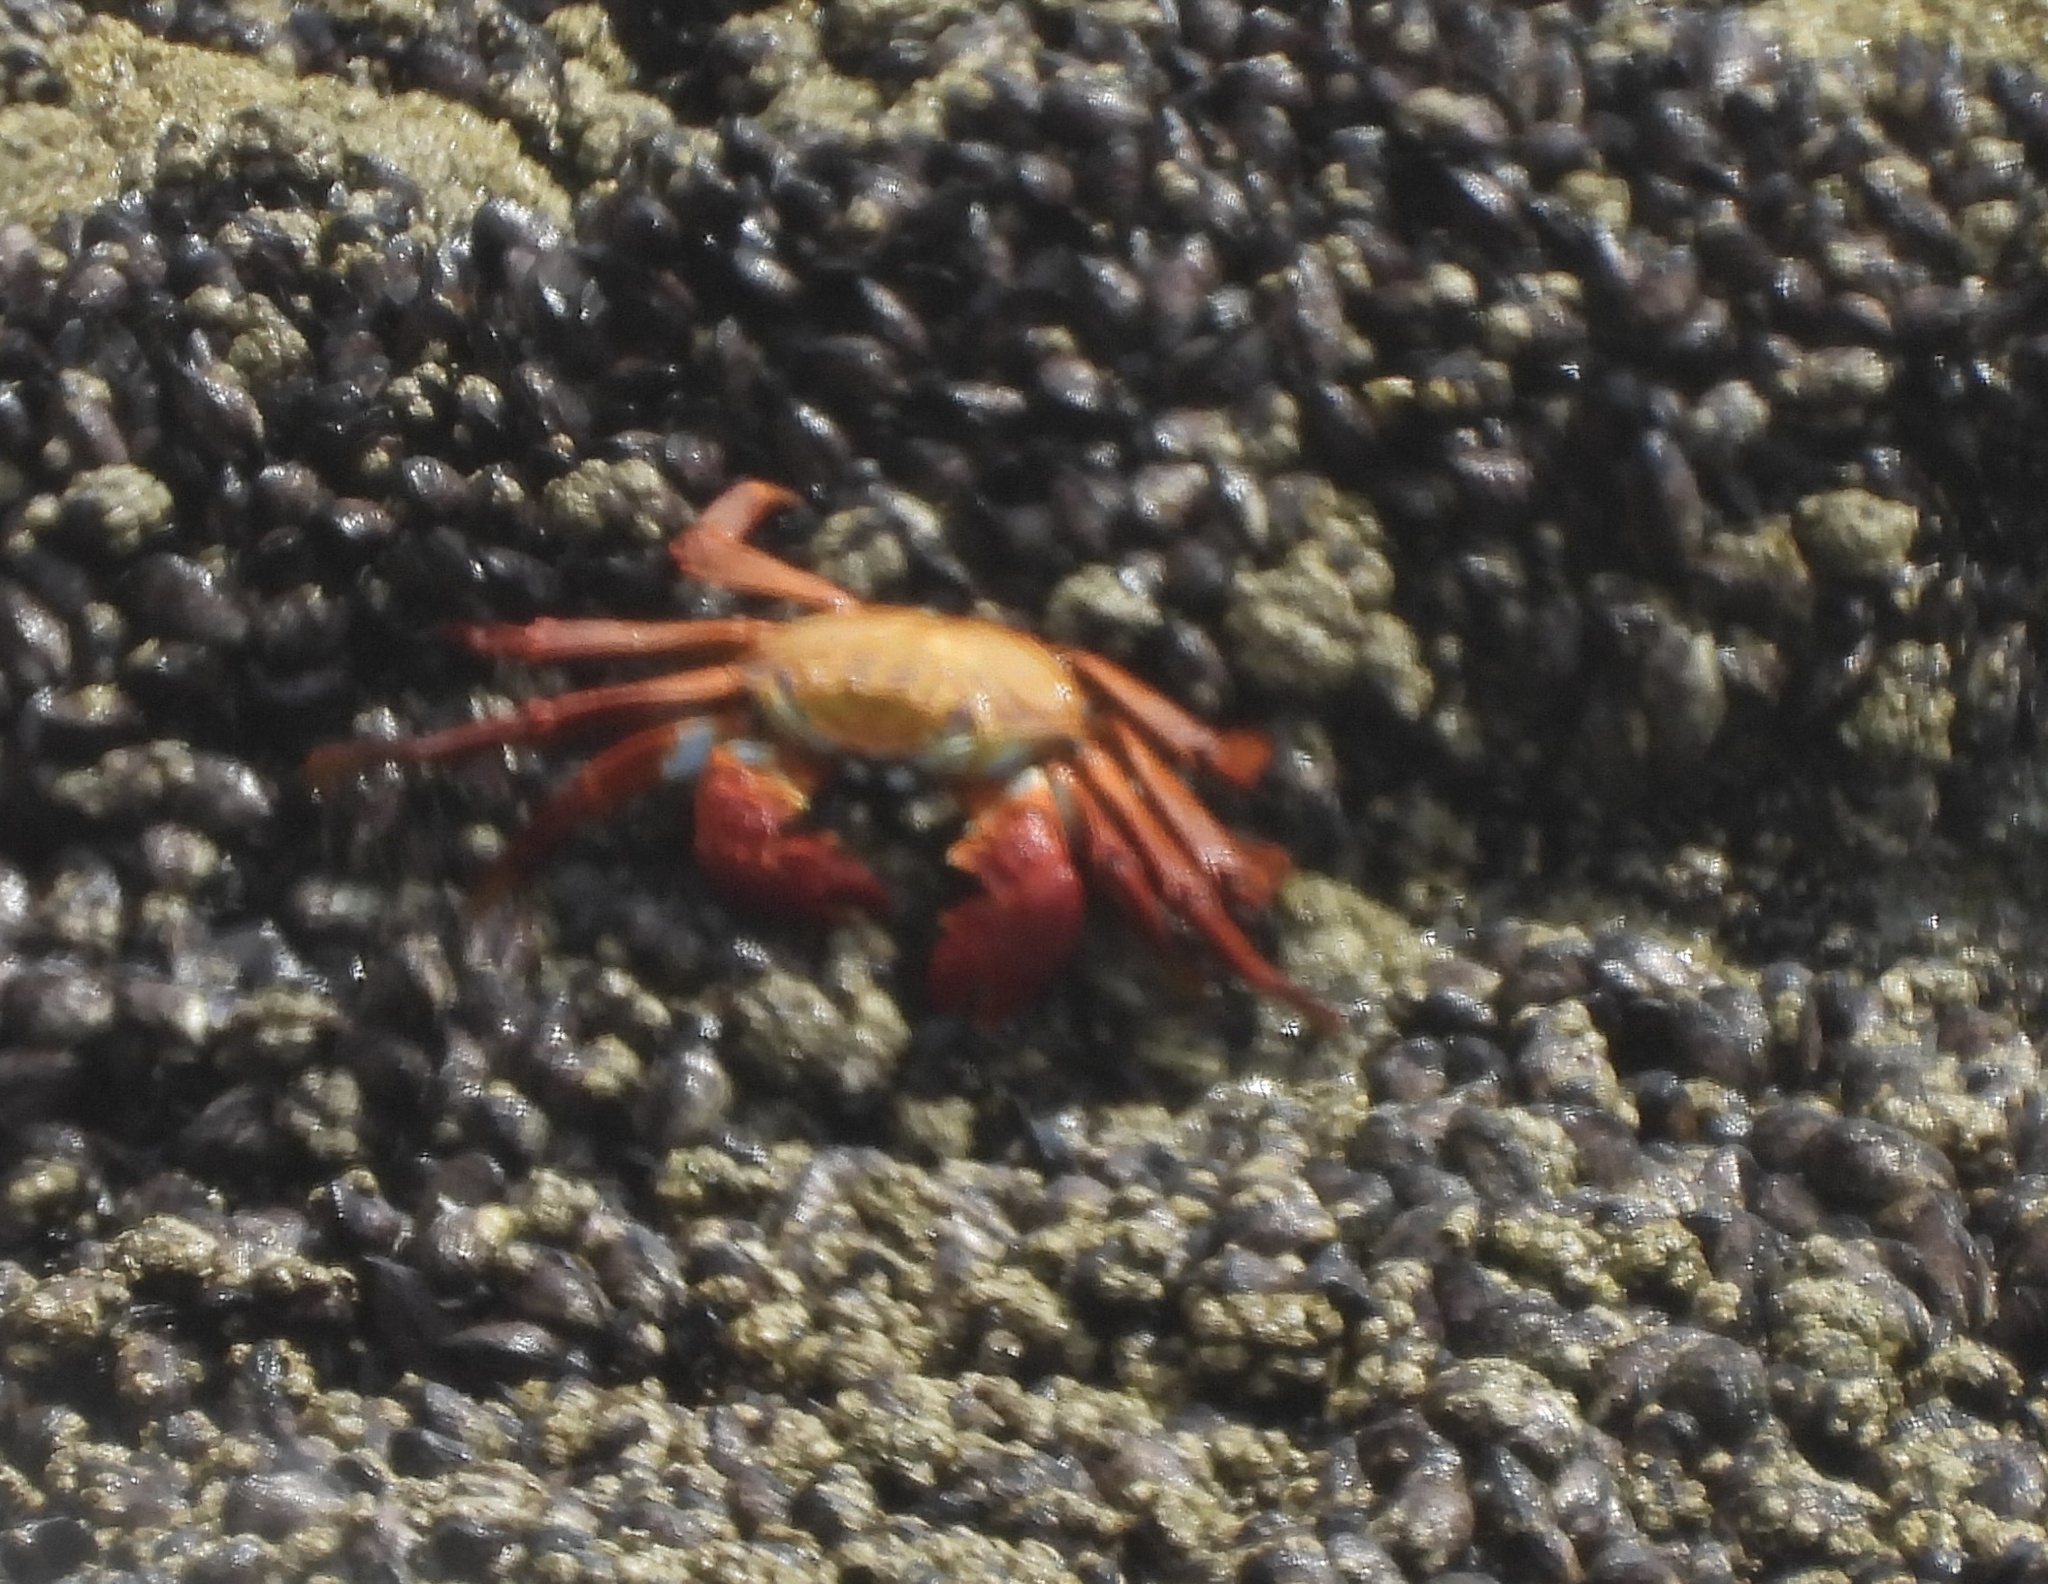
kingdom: Animalia
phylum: Arthropoda
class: Malacostraca
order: Decapoda
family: Grapsidae
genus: Grapsus
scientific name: Grapsus grapsus
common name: Sally lightfoot
